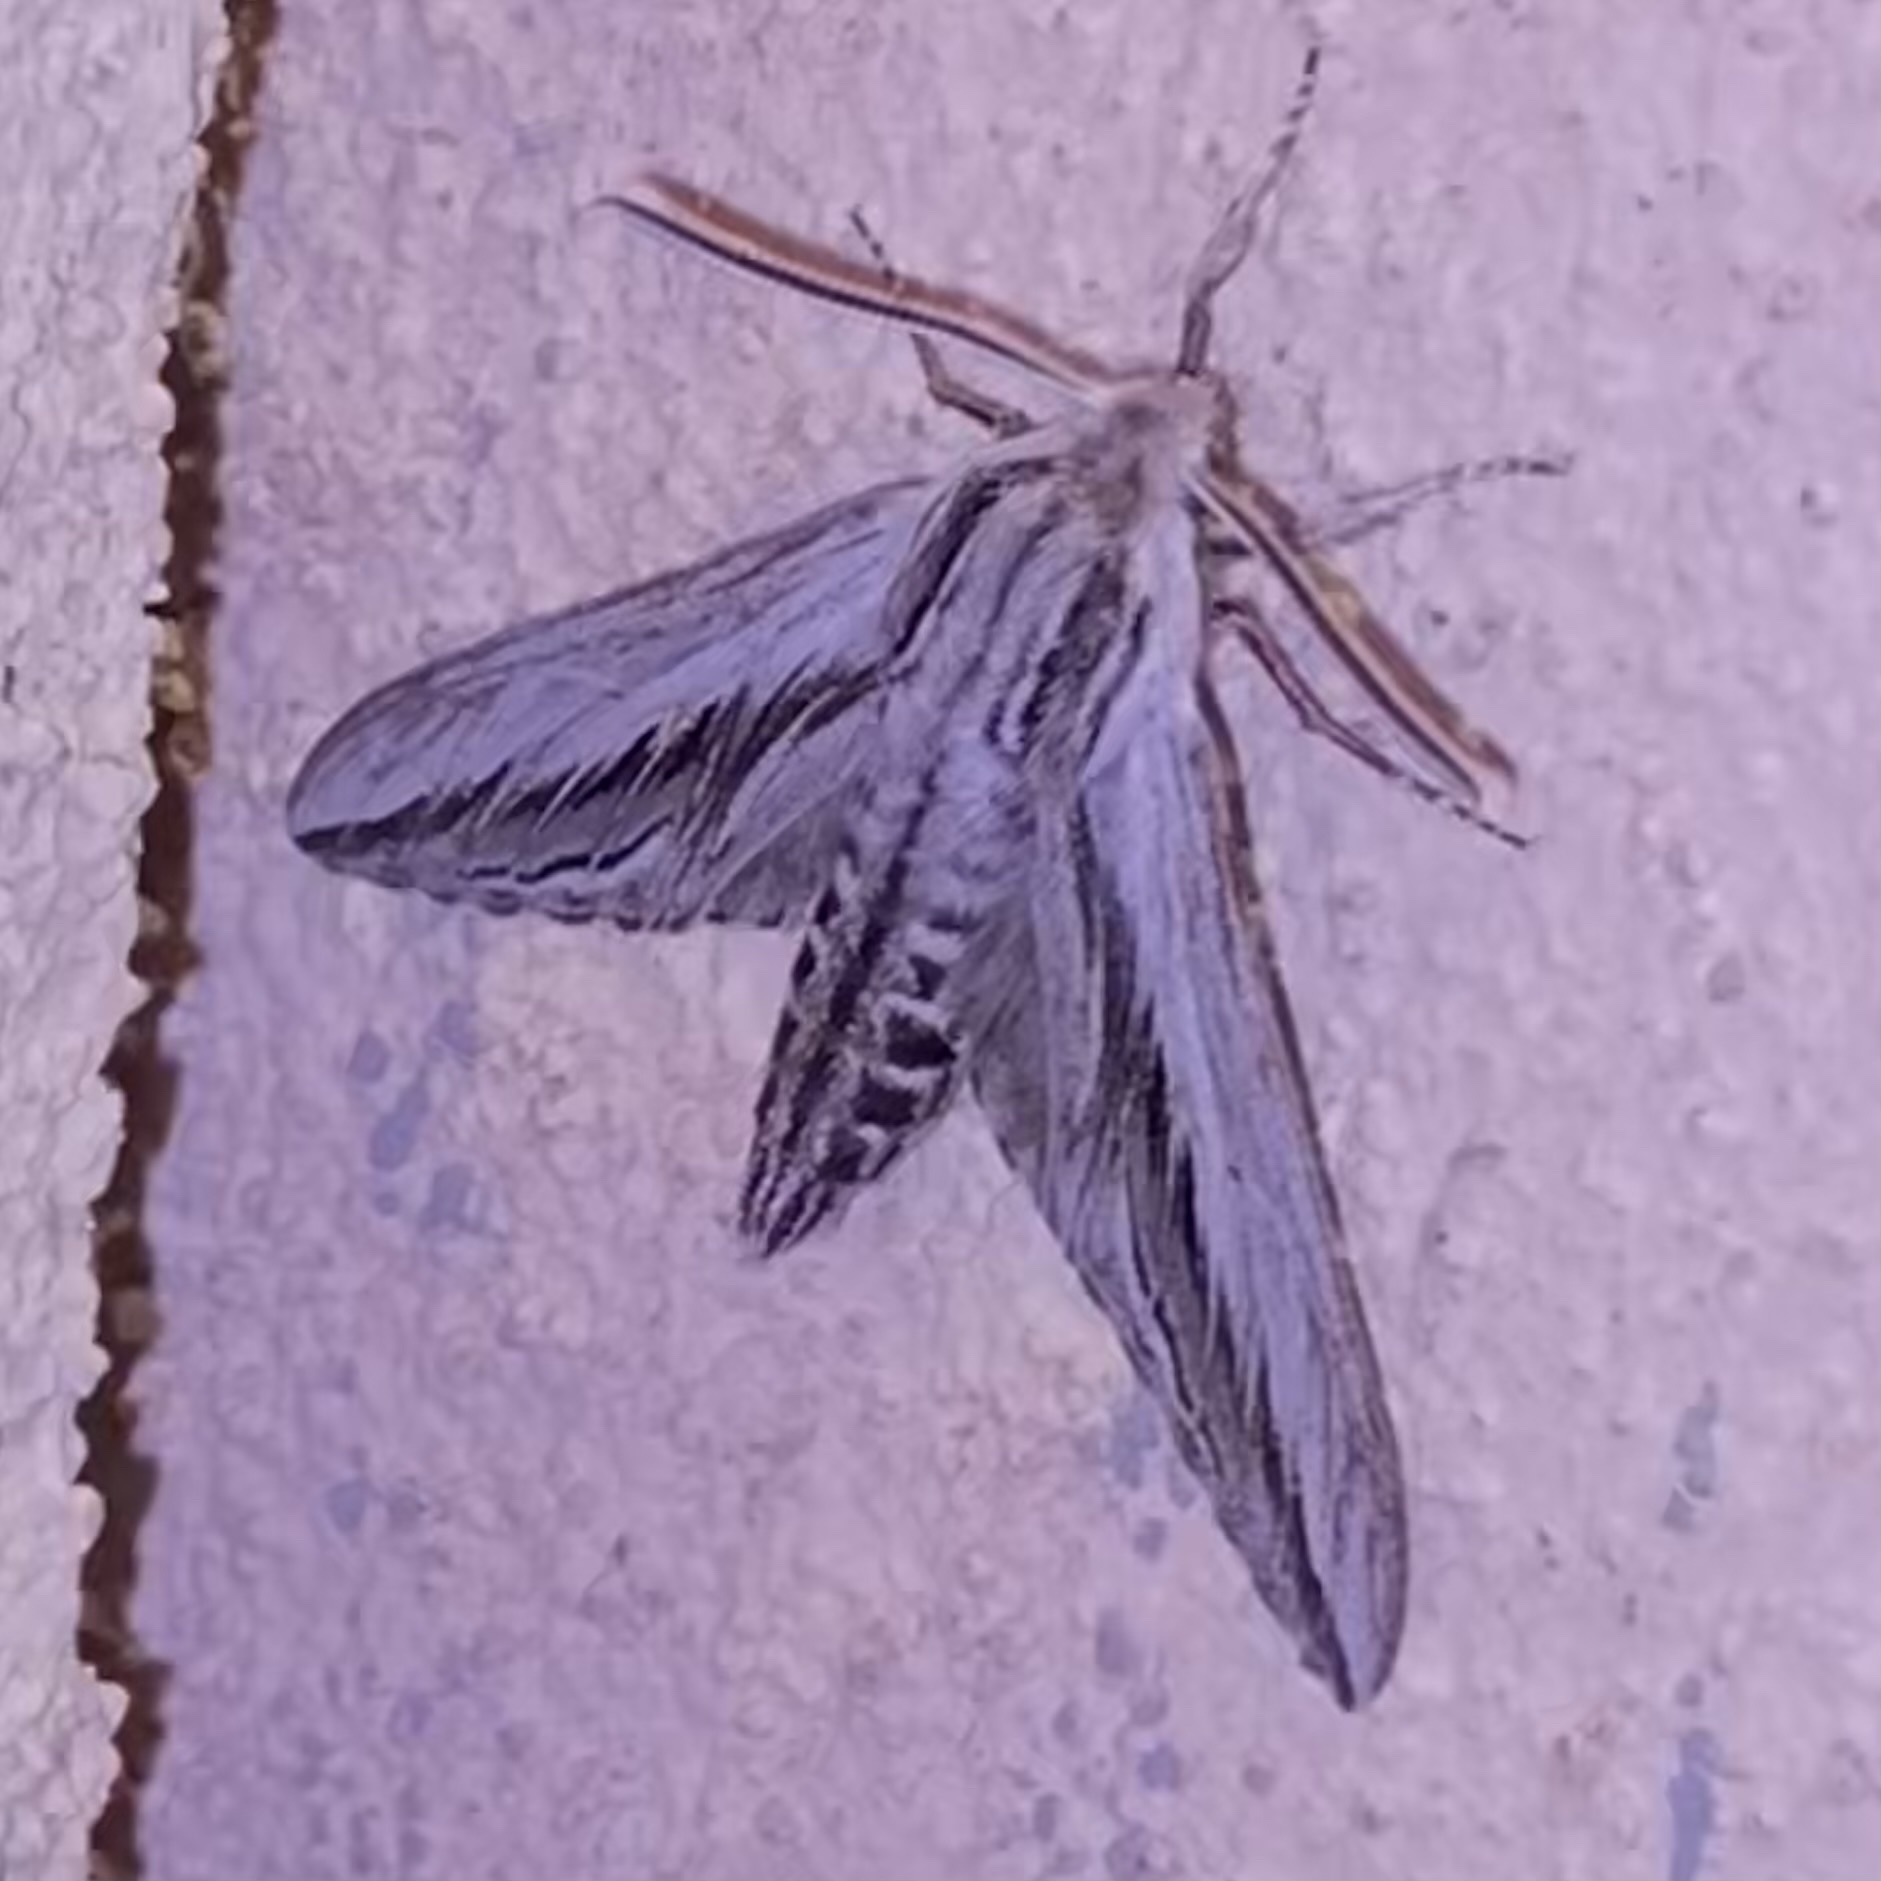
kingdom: Animalia
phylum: Arthropoda
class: Insecta
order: Lepidoptera
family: Sphingidae
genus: Sphinx
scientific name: Sphinx dollii
